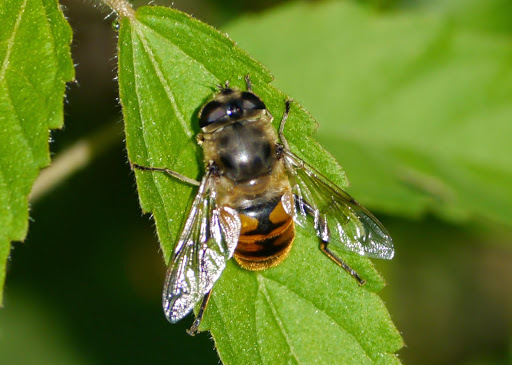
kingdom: Animalia
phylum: Arthropoda
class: Insecta
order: Diptera
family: Syrphidae
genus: Eristalis
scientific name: Eristalis tenax
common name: Drone fly
